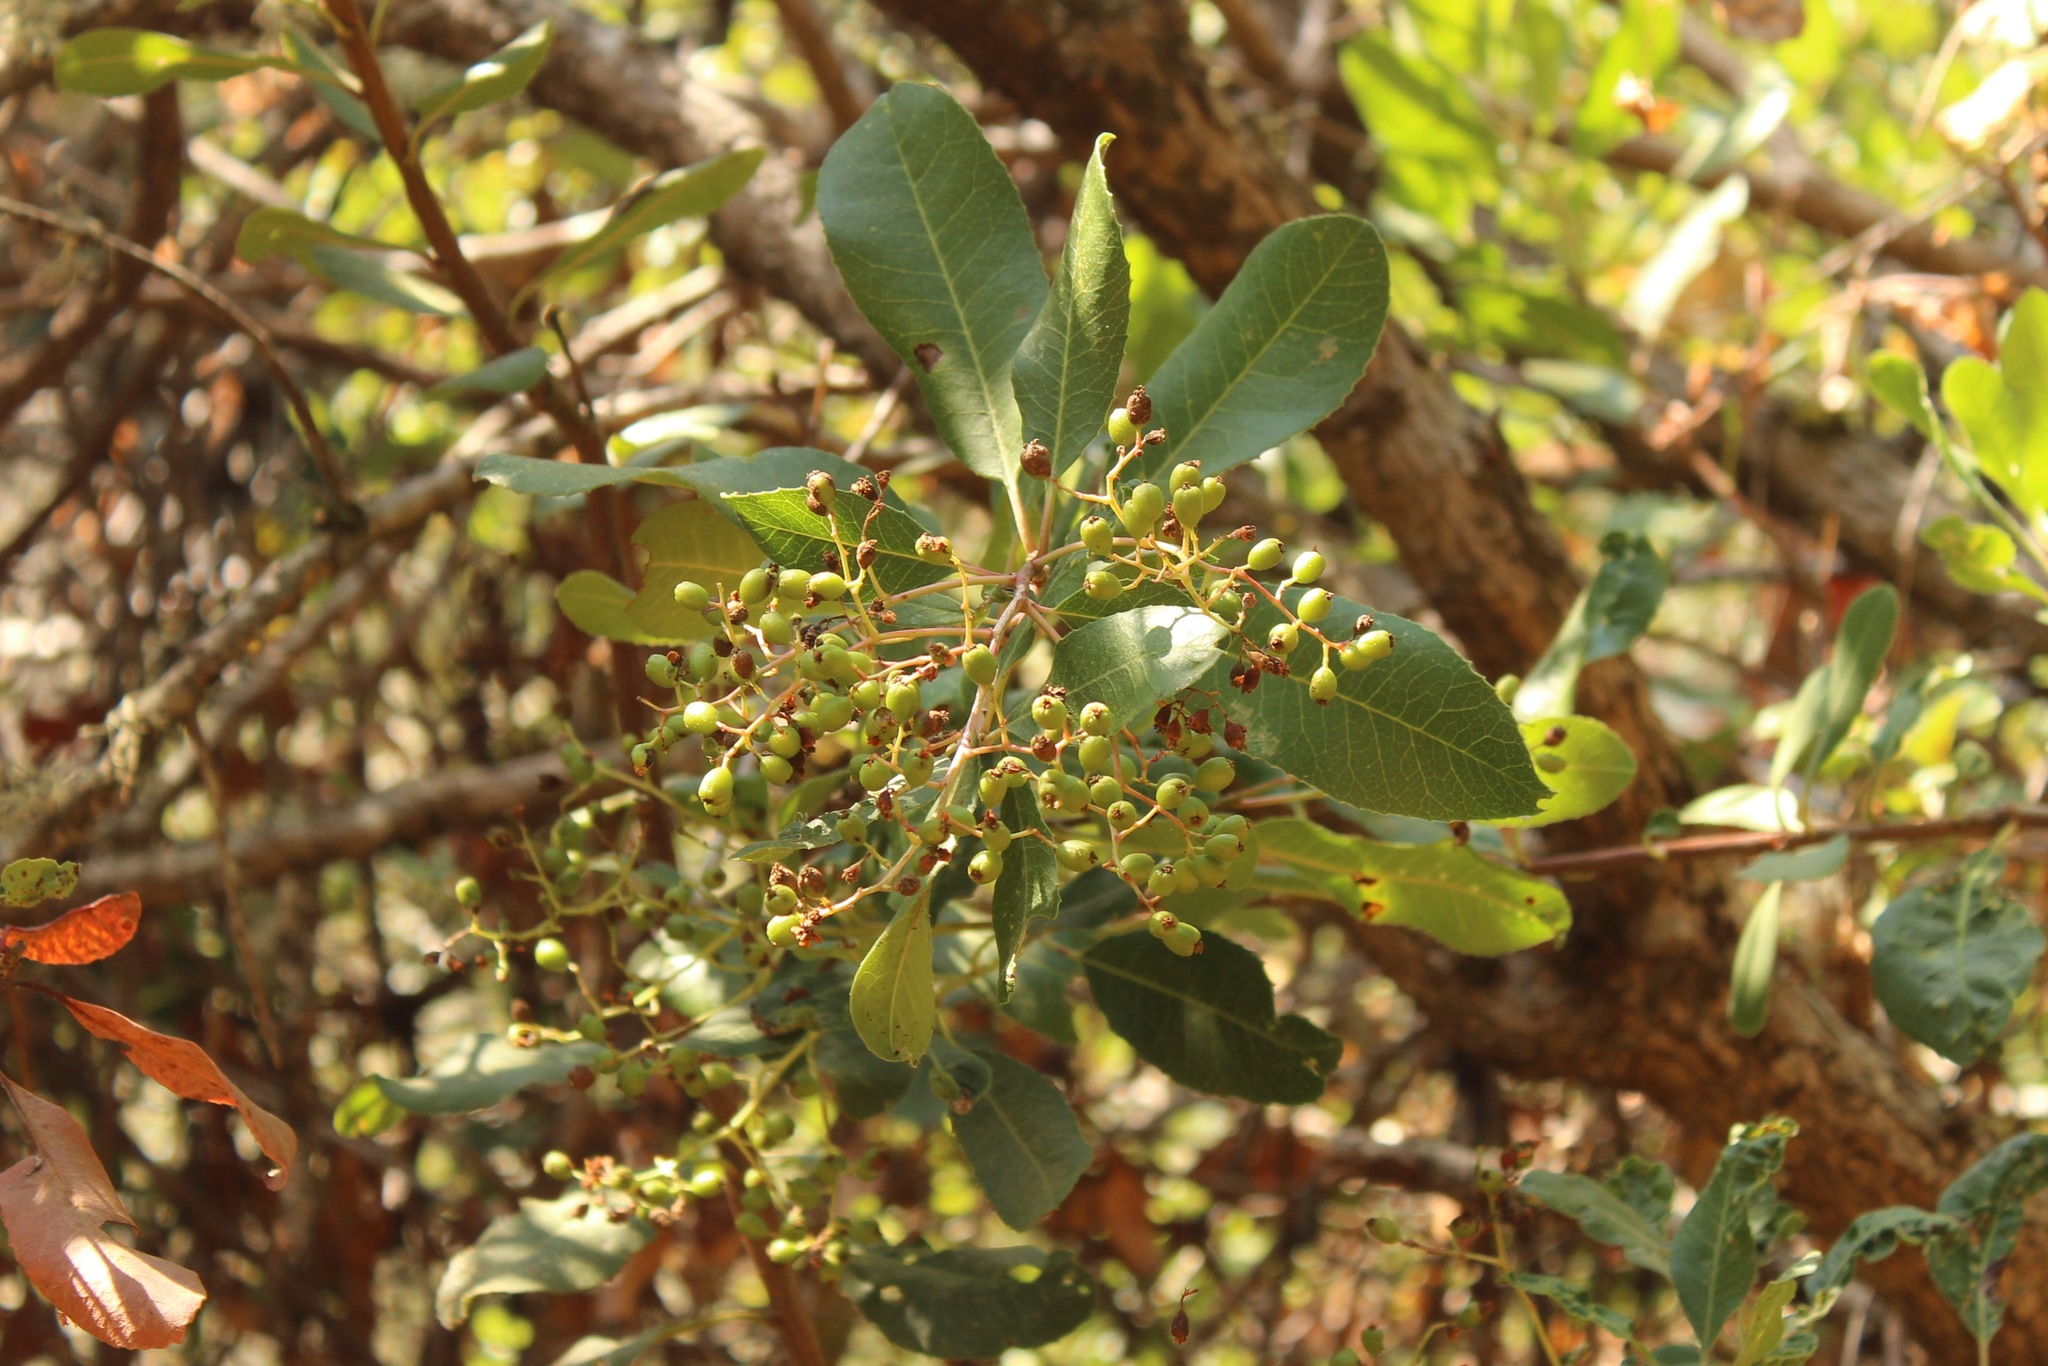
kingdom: Plantae
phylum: Tracheophyta
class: Magnoliopsida
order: Rosales
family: Rosaceae
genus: Heteromeles
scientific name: Heteromeles arbutifolia
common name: California-holly
